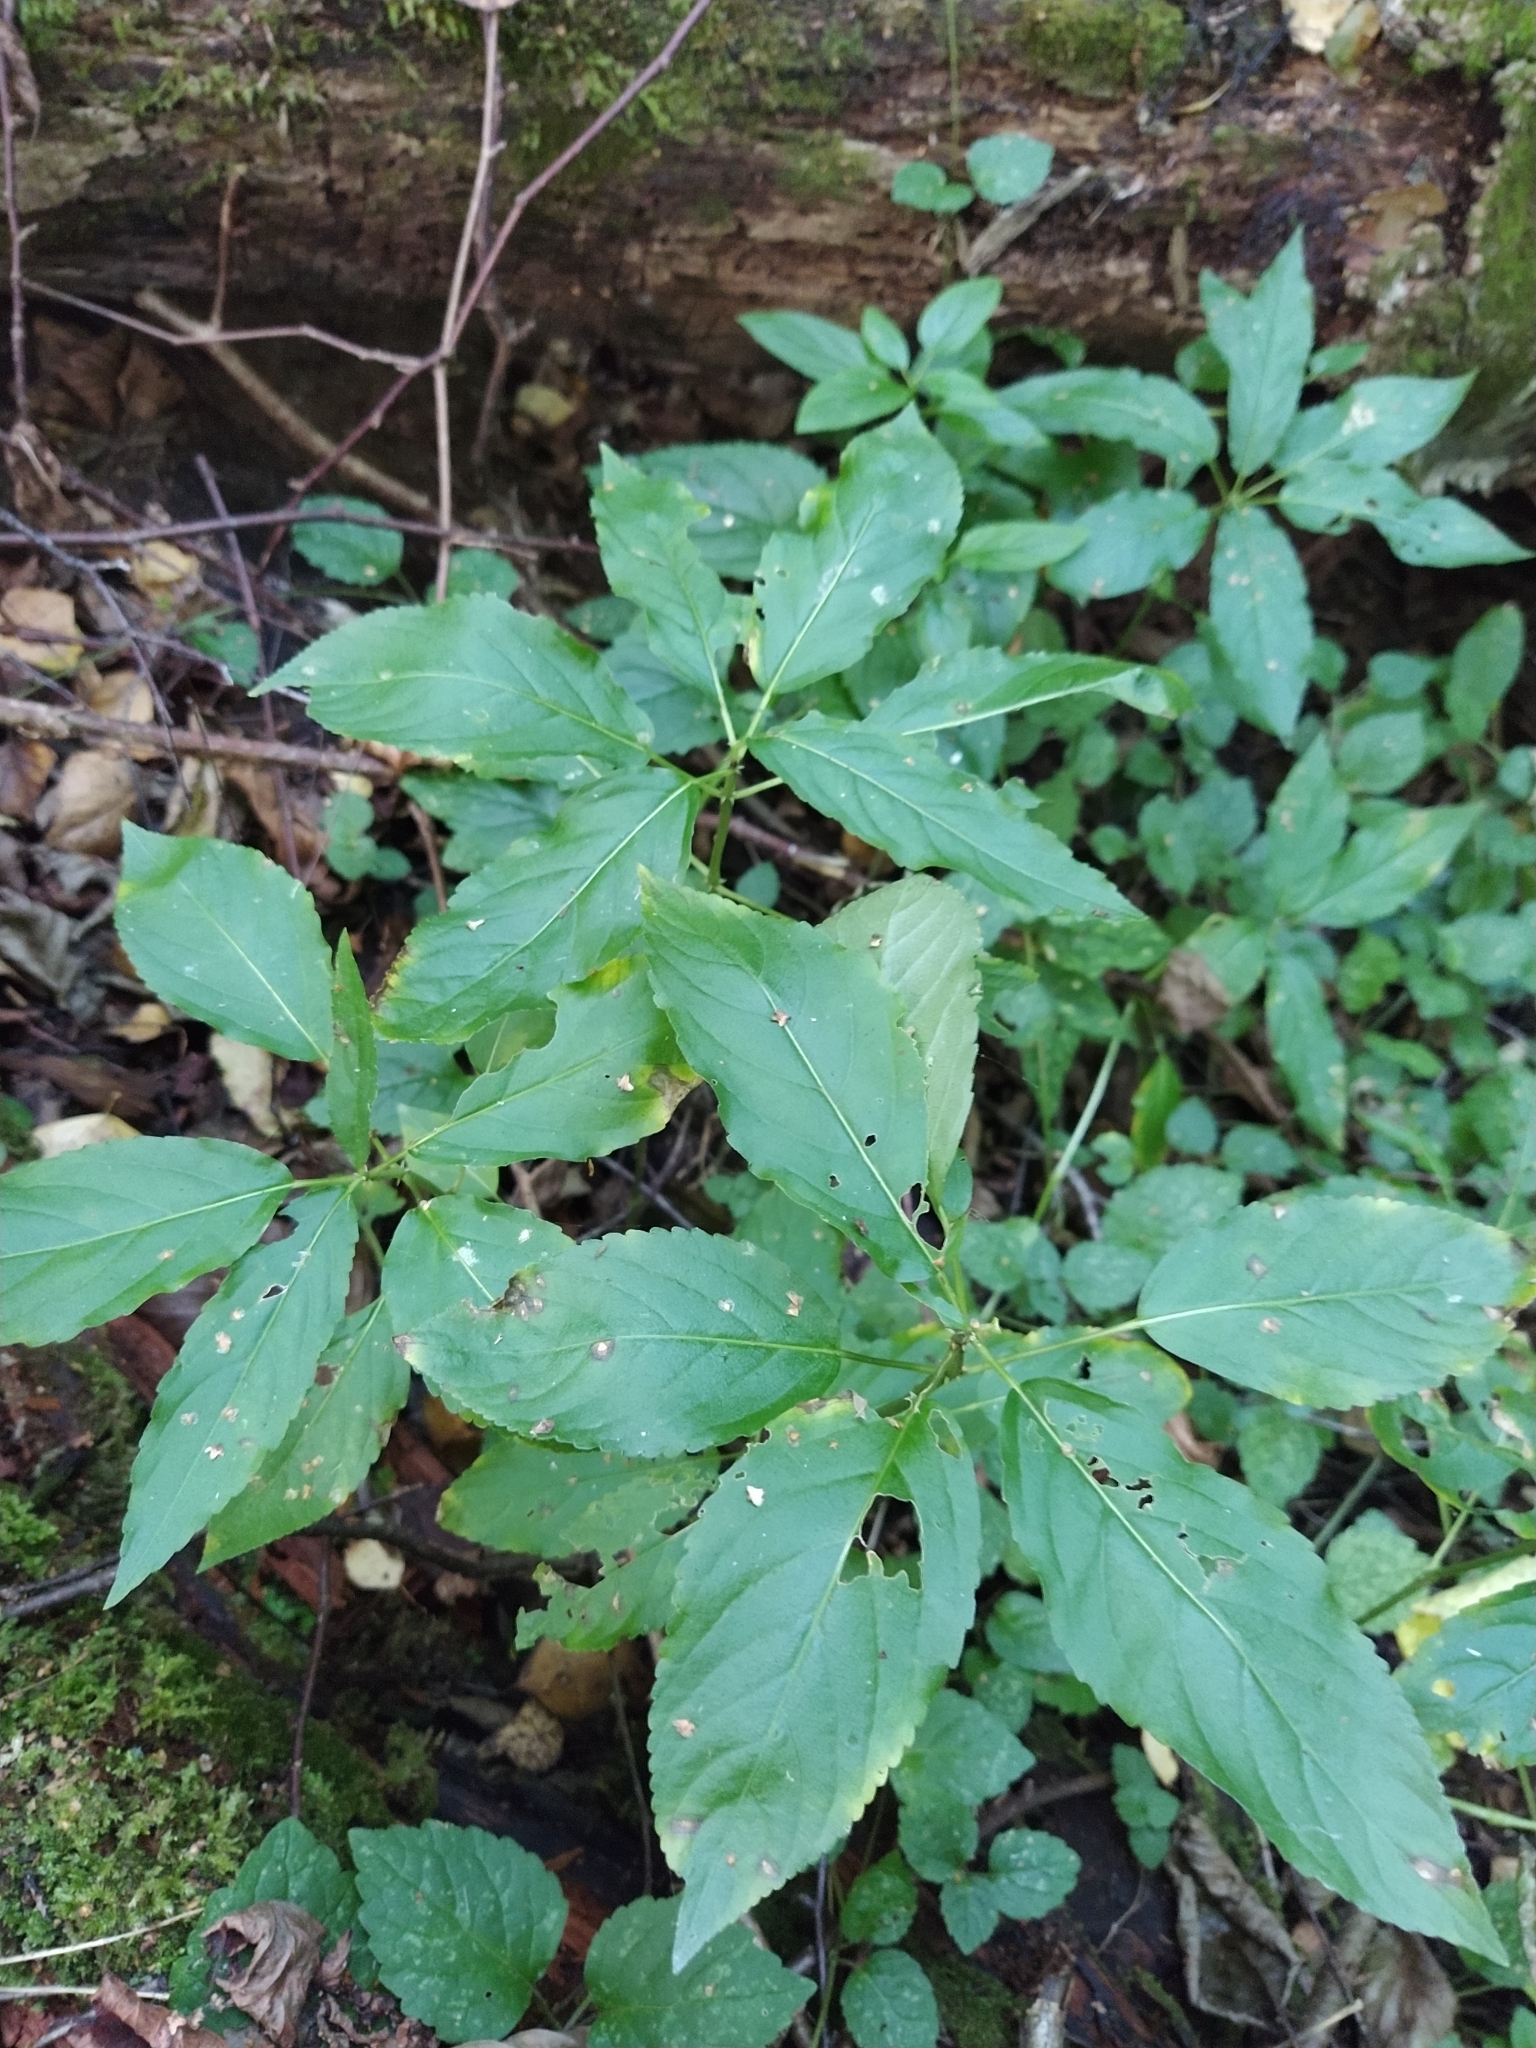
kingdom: Plantae
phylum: Tracheophyta
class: Magnoliopsida
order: Malpighiales
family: Euphorbiaceae
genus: Mercurialis
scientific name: Mercurialis perennis
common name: Dog mercury
